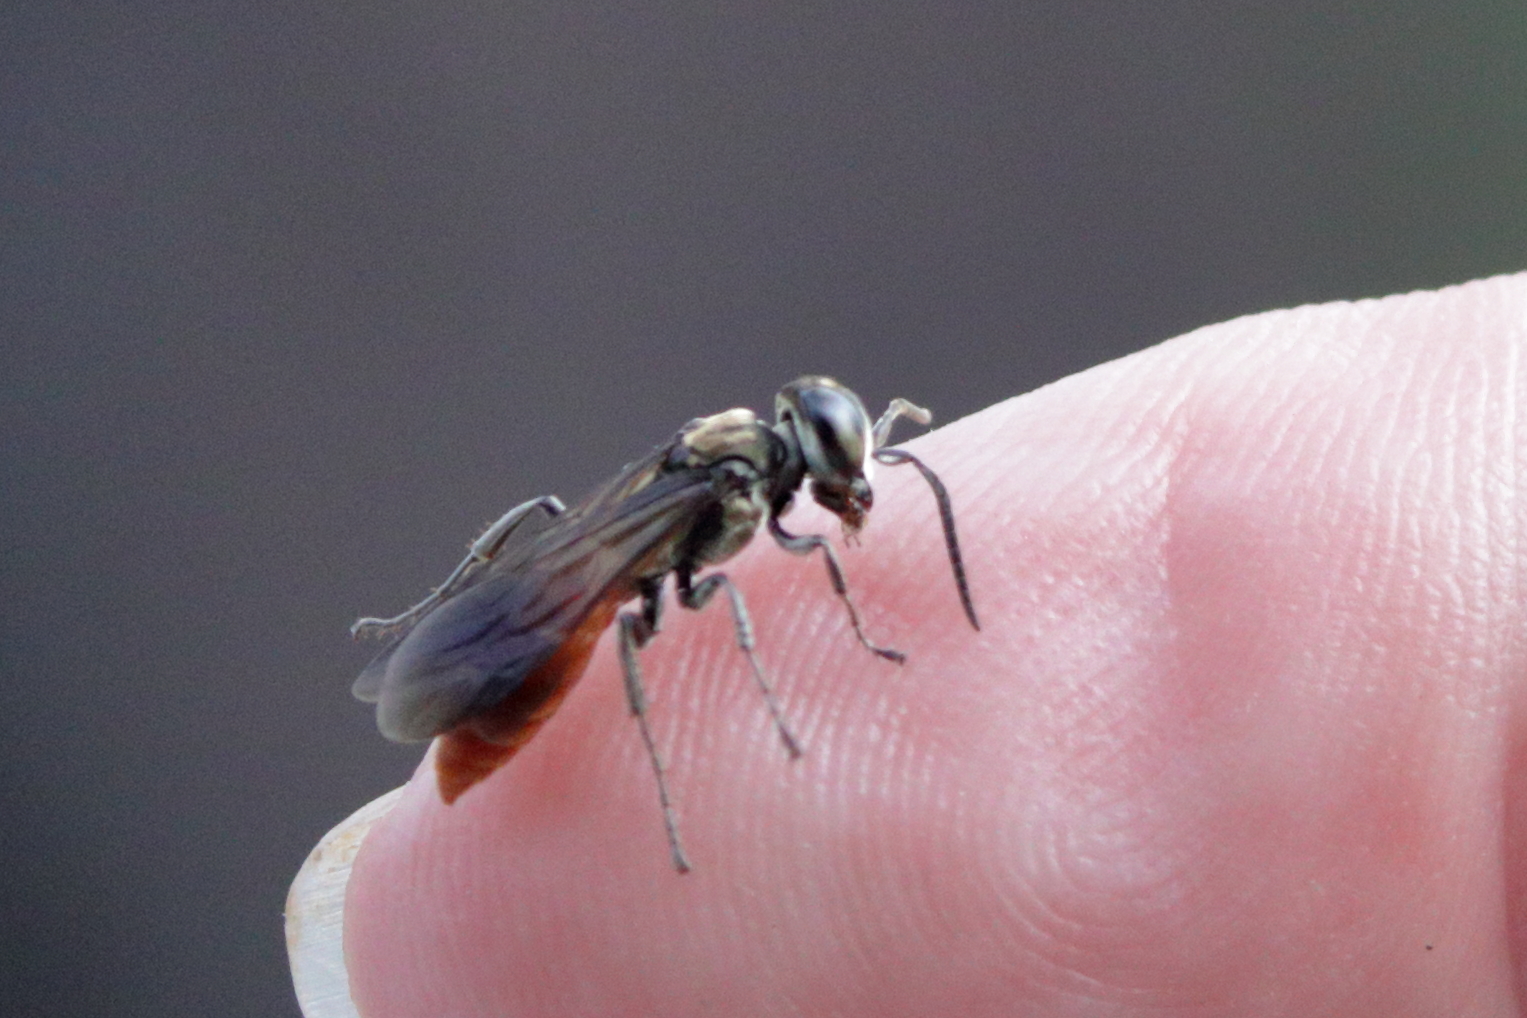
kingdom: Animalia
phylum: Arthropoda
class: Insecta
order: Hymenoptera
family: Crabronidae
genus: Larra
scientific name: Larra bicolor
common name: Wasp
